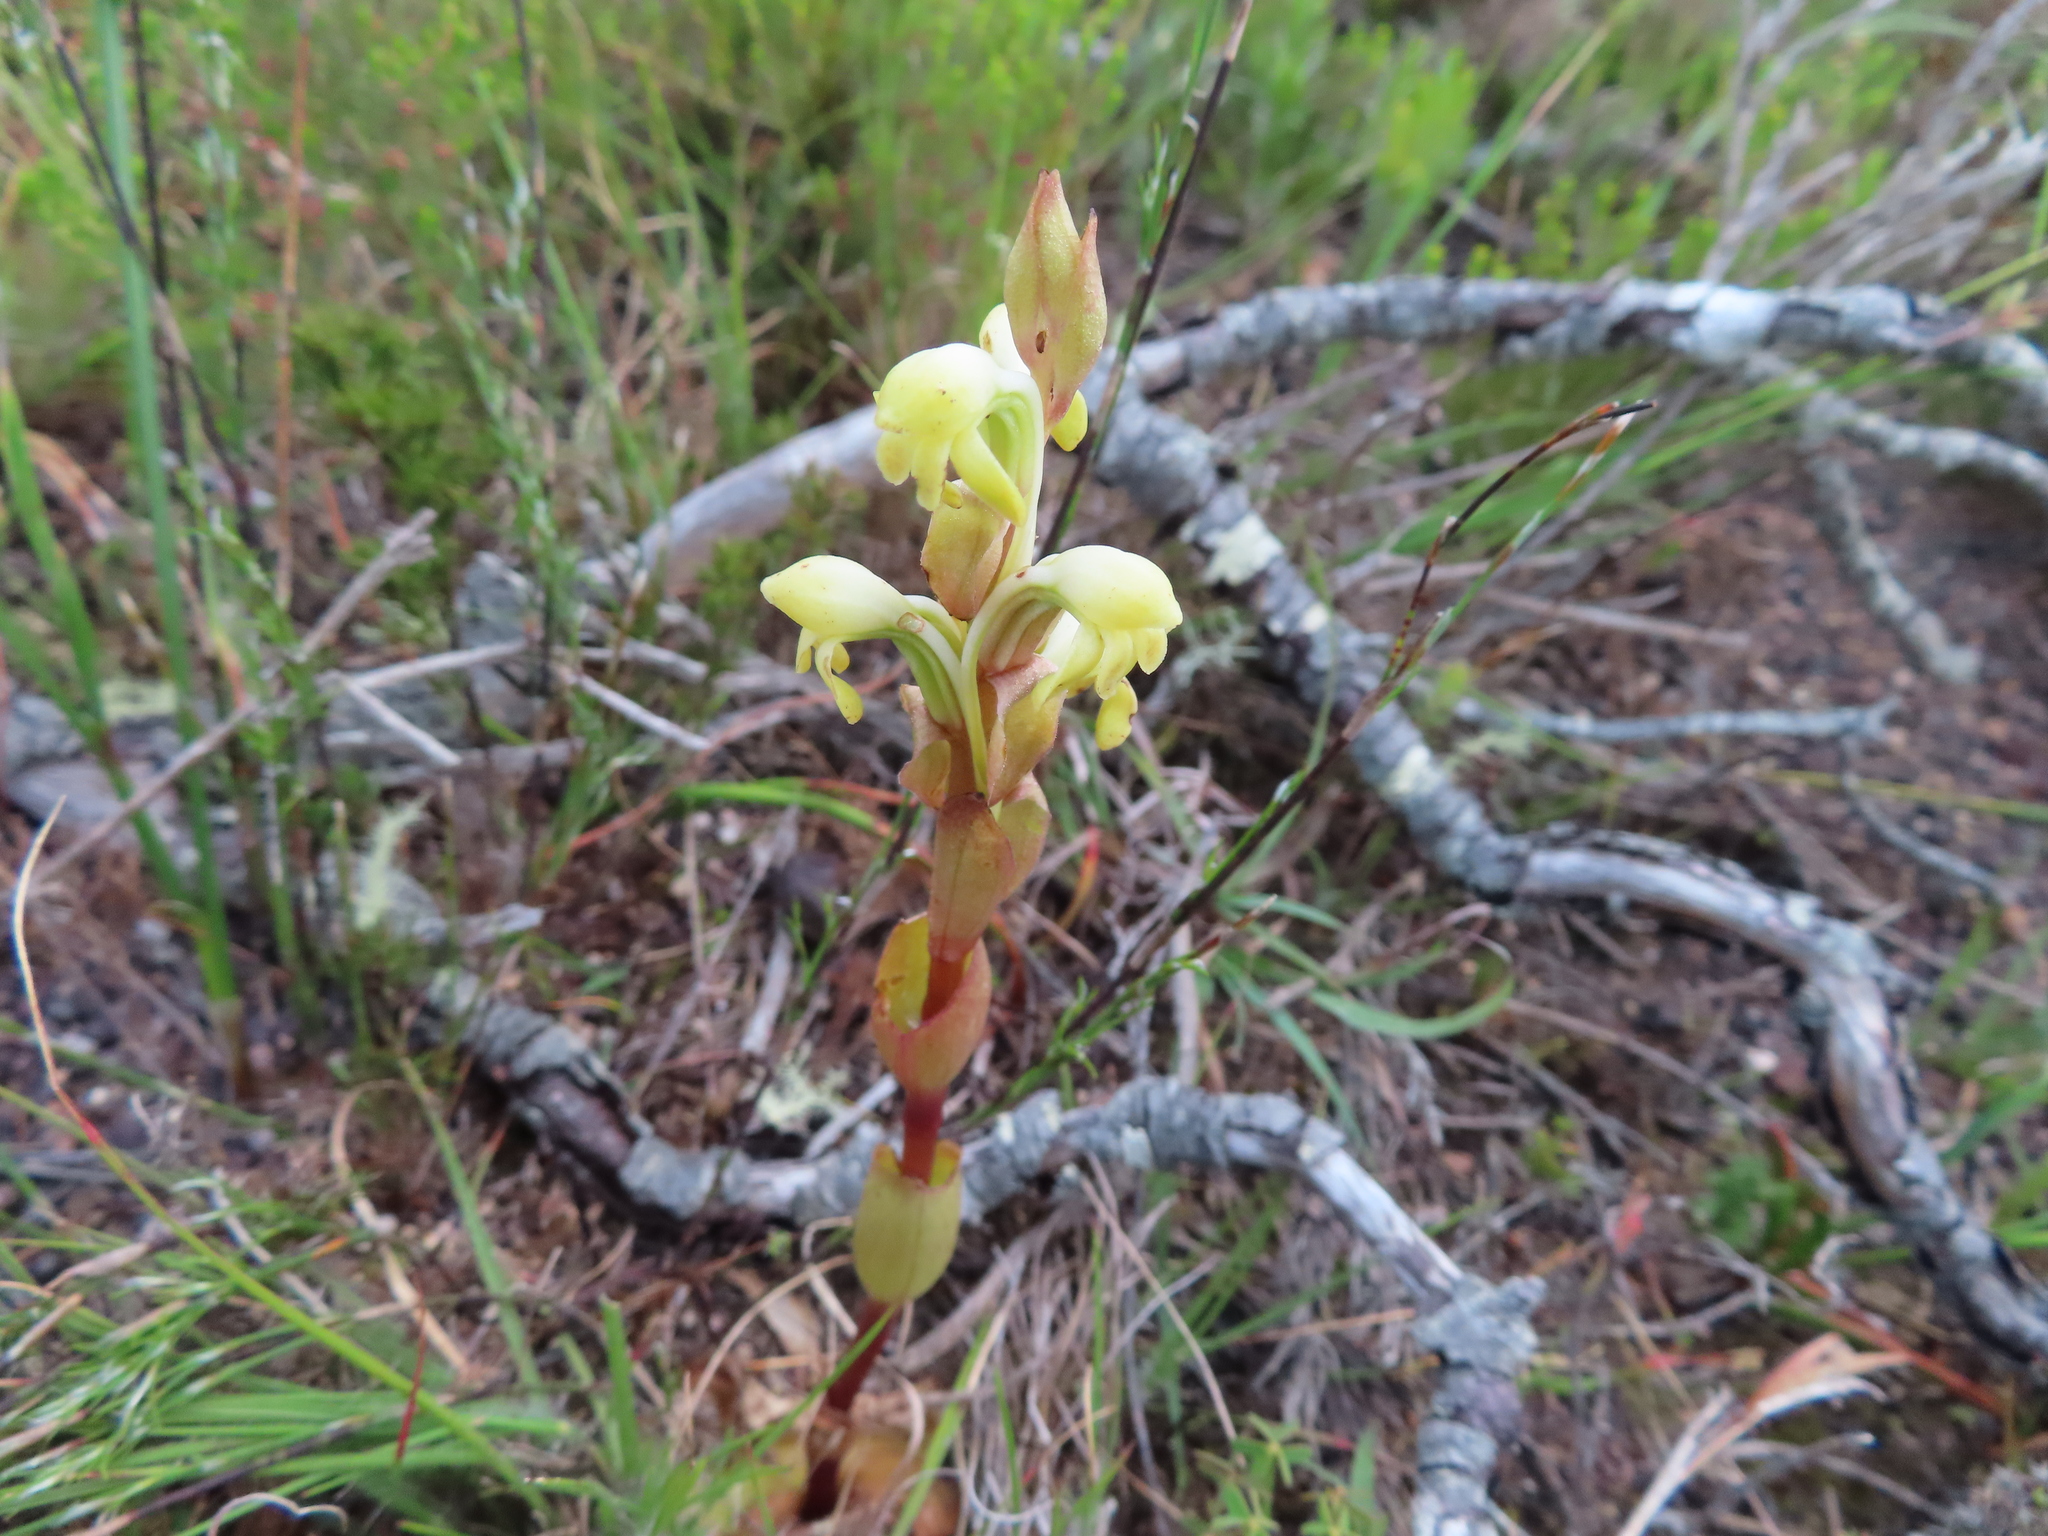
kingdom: Plantae
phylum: Tracheophyta
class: Liliopsida
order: Asparagales
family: Orchidaceae
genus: Satyrium
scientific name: Satyrium bicorne
